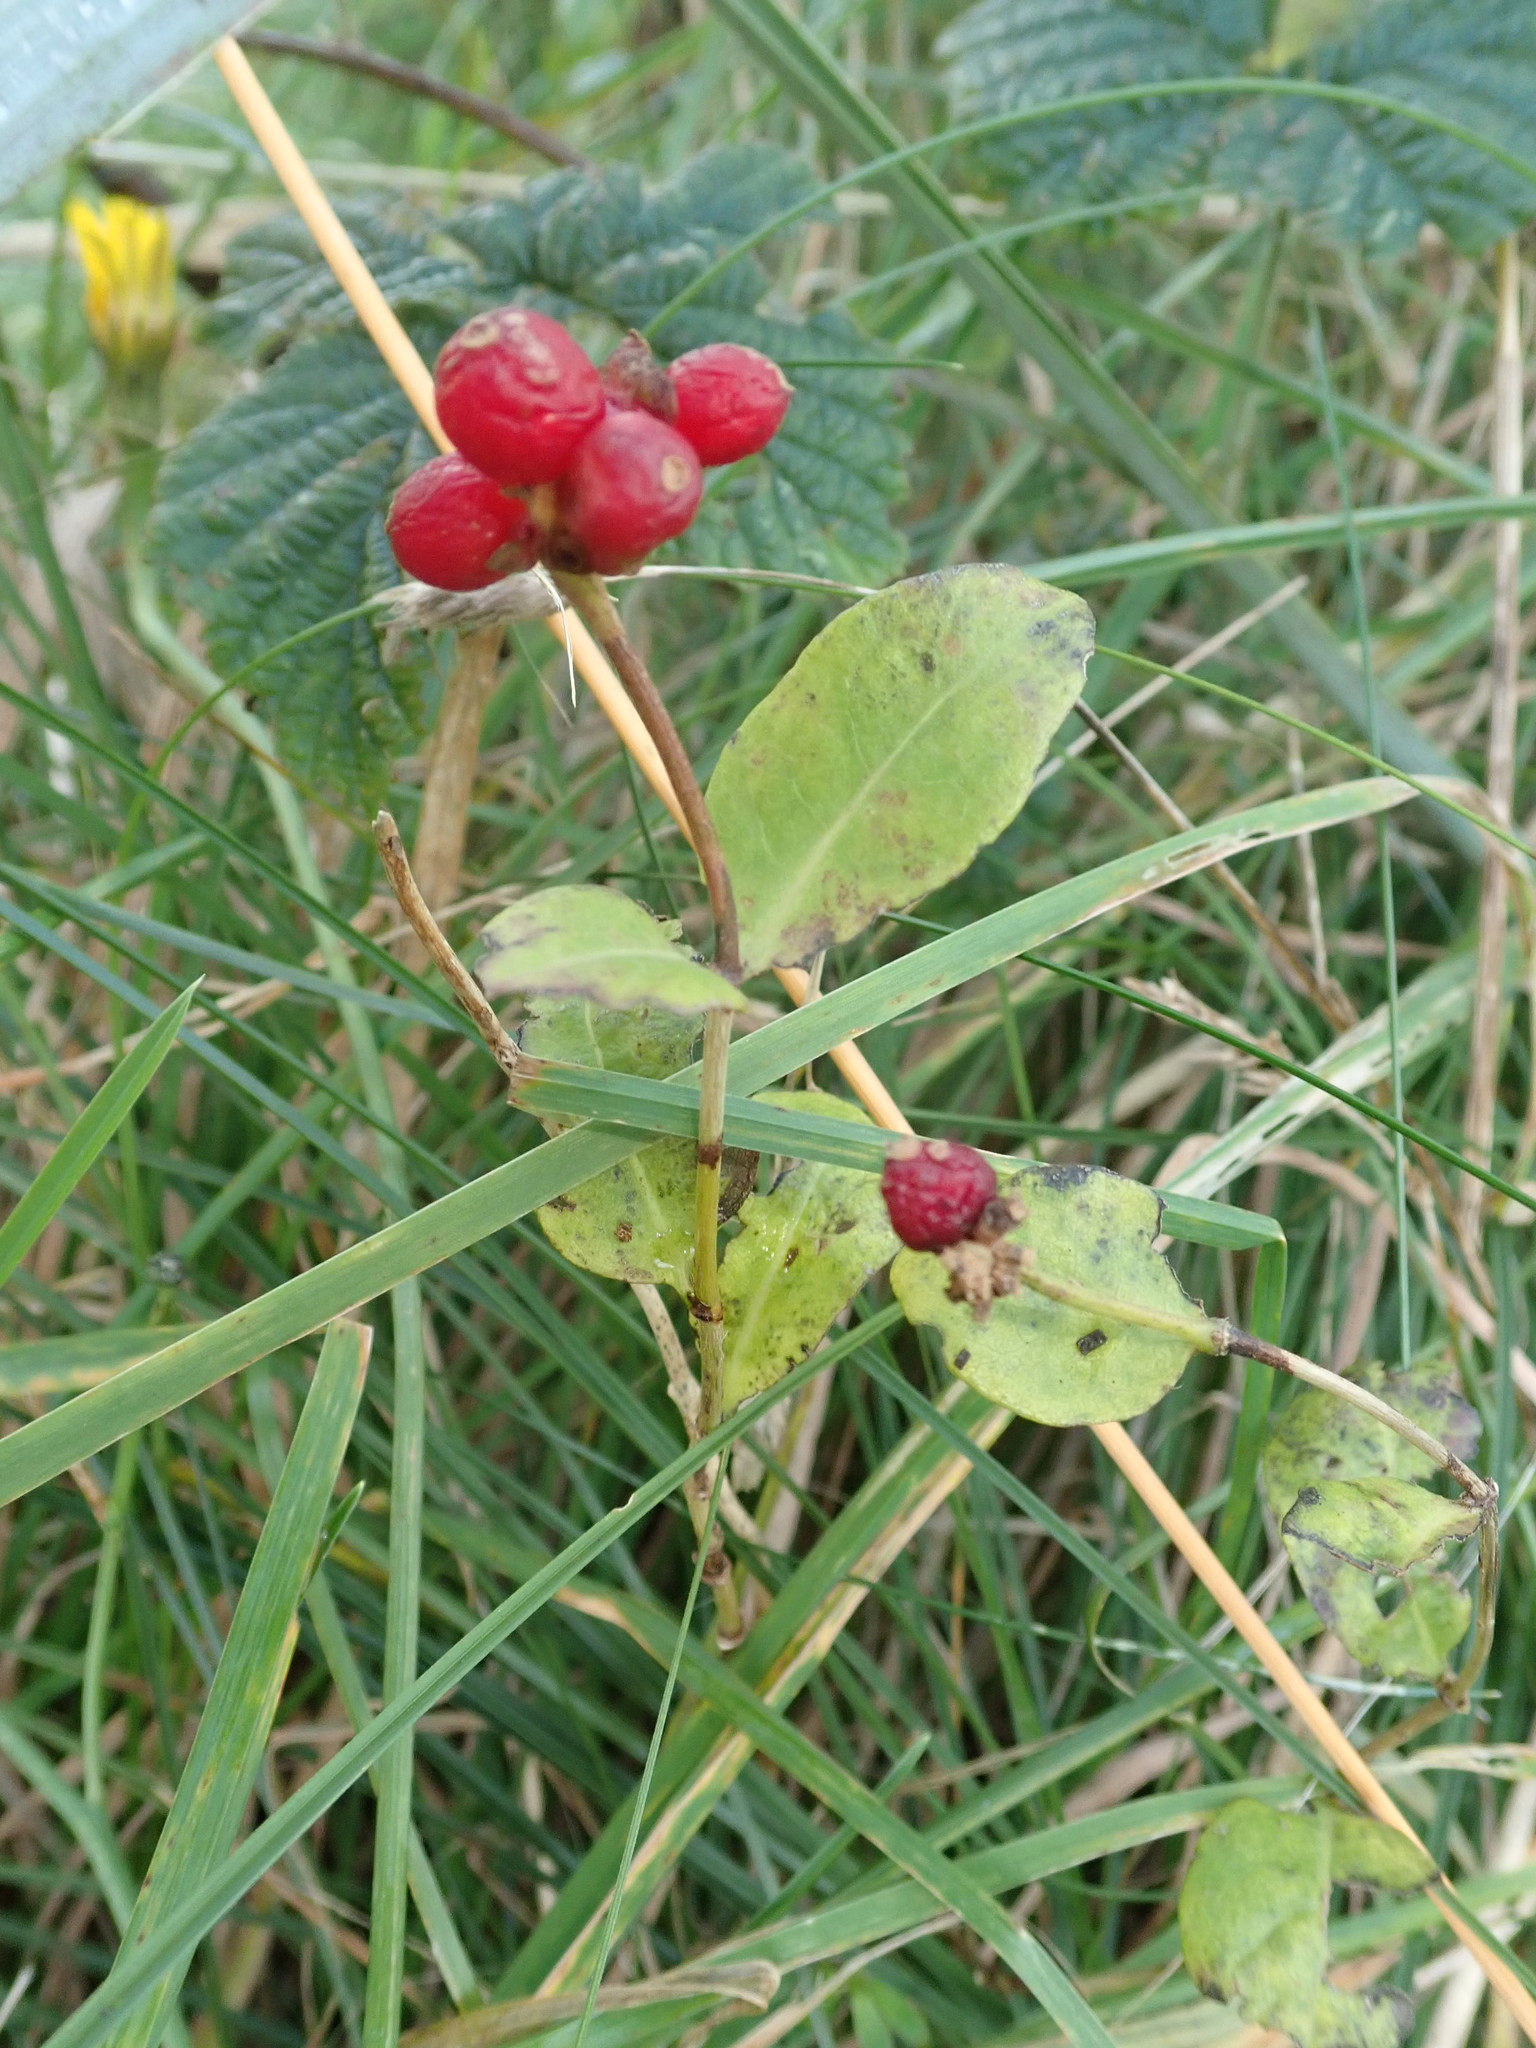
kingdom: Plantae
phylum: Tracheophyta
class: Magnoliopsida
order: Dipsacales
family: Caprifoliaceae
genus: Lonicera
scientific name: Lonicera periclymenum
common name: European honeysuckle
